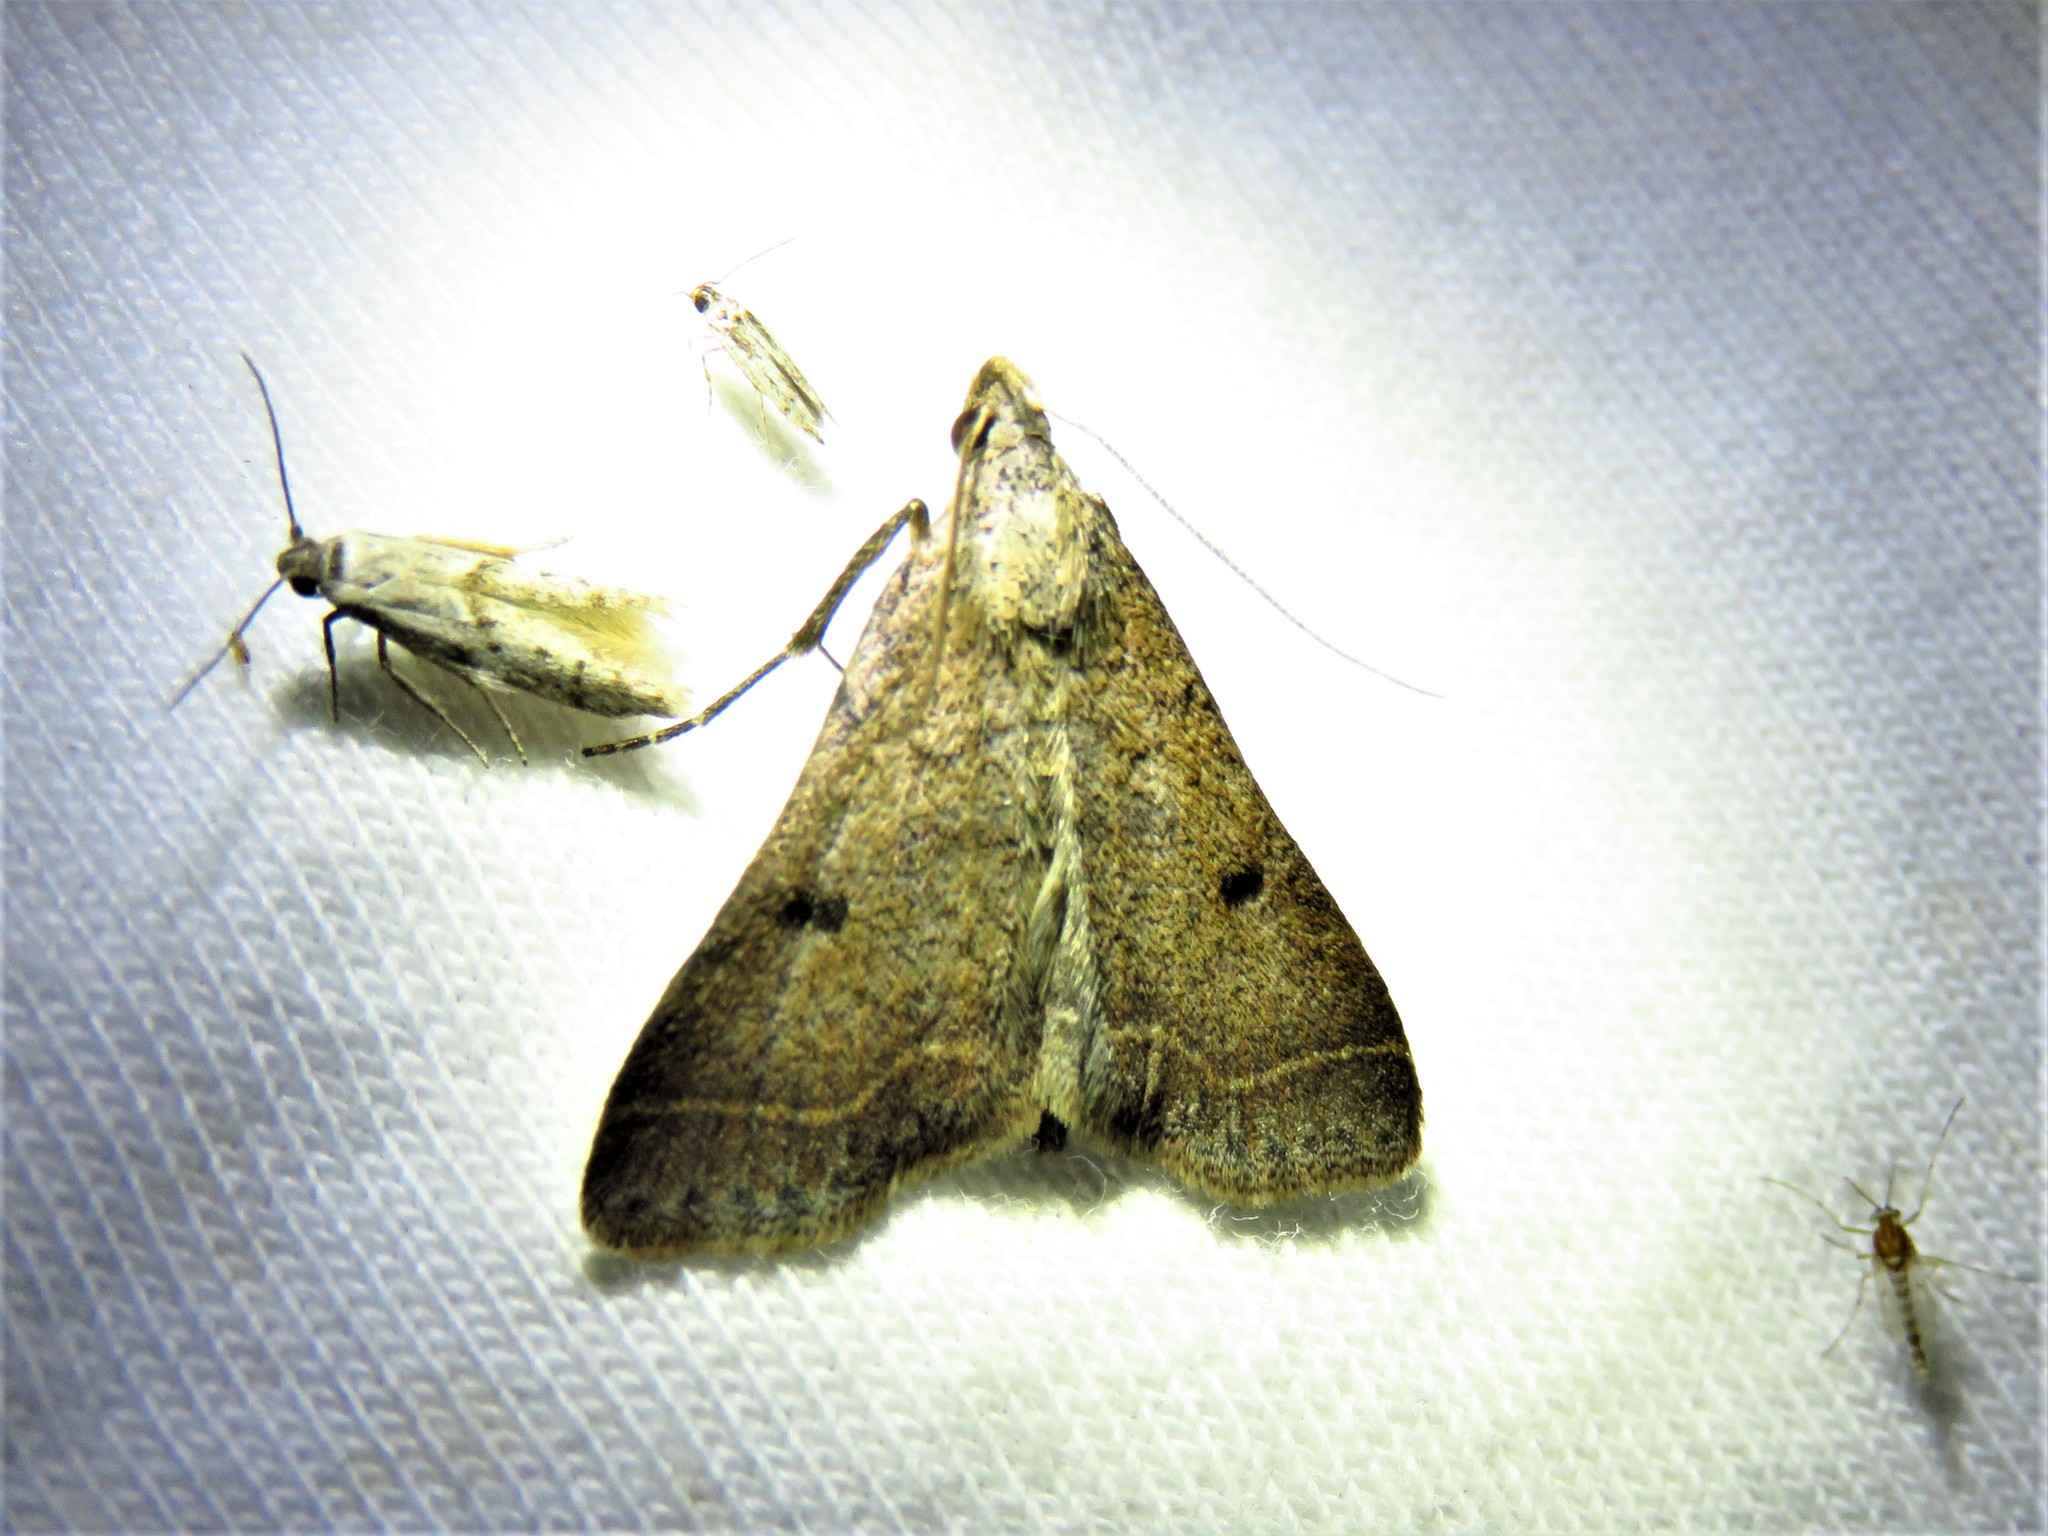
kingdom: Animalia
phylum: Arthropoda
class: Insecta
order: Lepidoptera
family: Erebidae
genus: Bleptina
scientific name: Bleptina caradrinalis
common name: Bent-winged owlet
